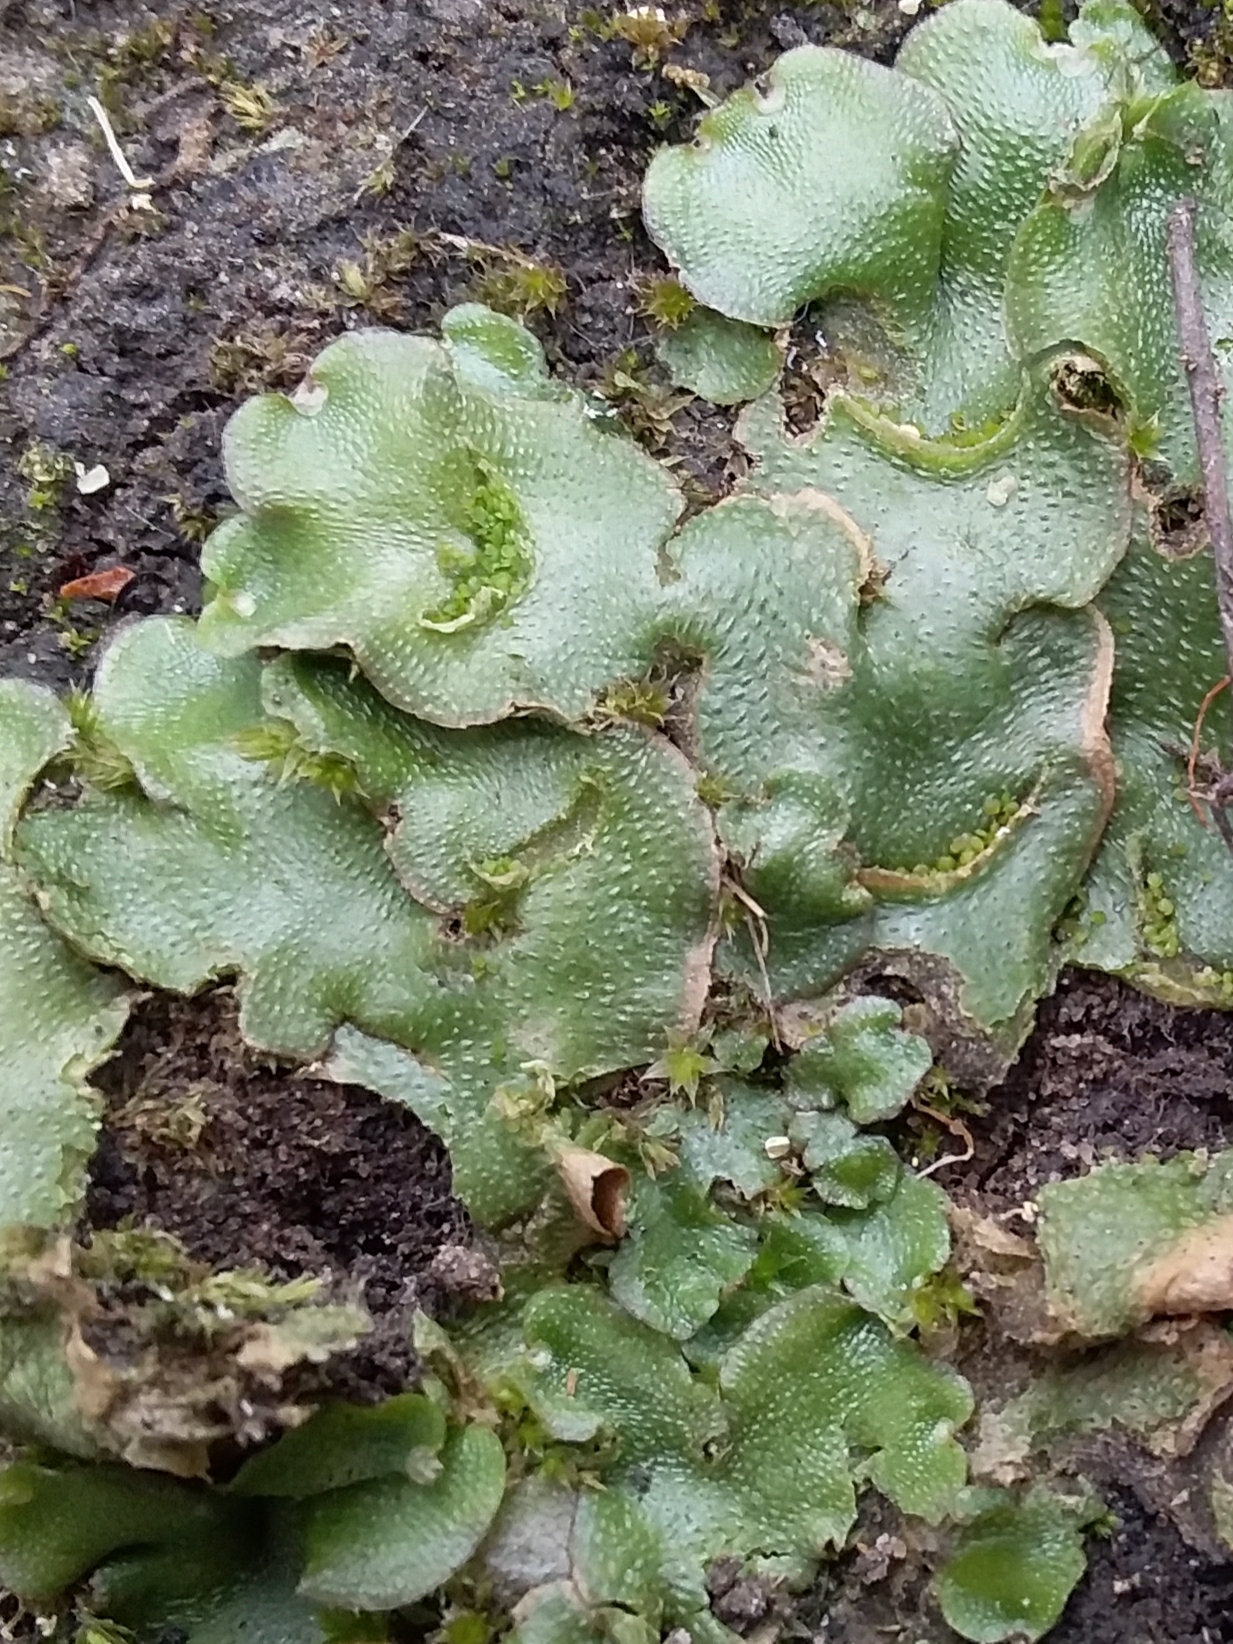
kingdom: Plantae
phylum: Marchantiophyta
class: Marchantiopsida
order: Lunulariales
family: Lunulariaceae
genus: Lunularia
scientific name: Lunularia cruciata
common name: Crescent-cup liverwort
